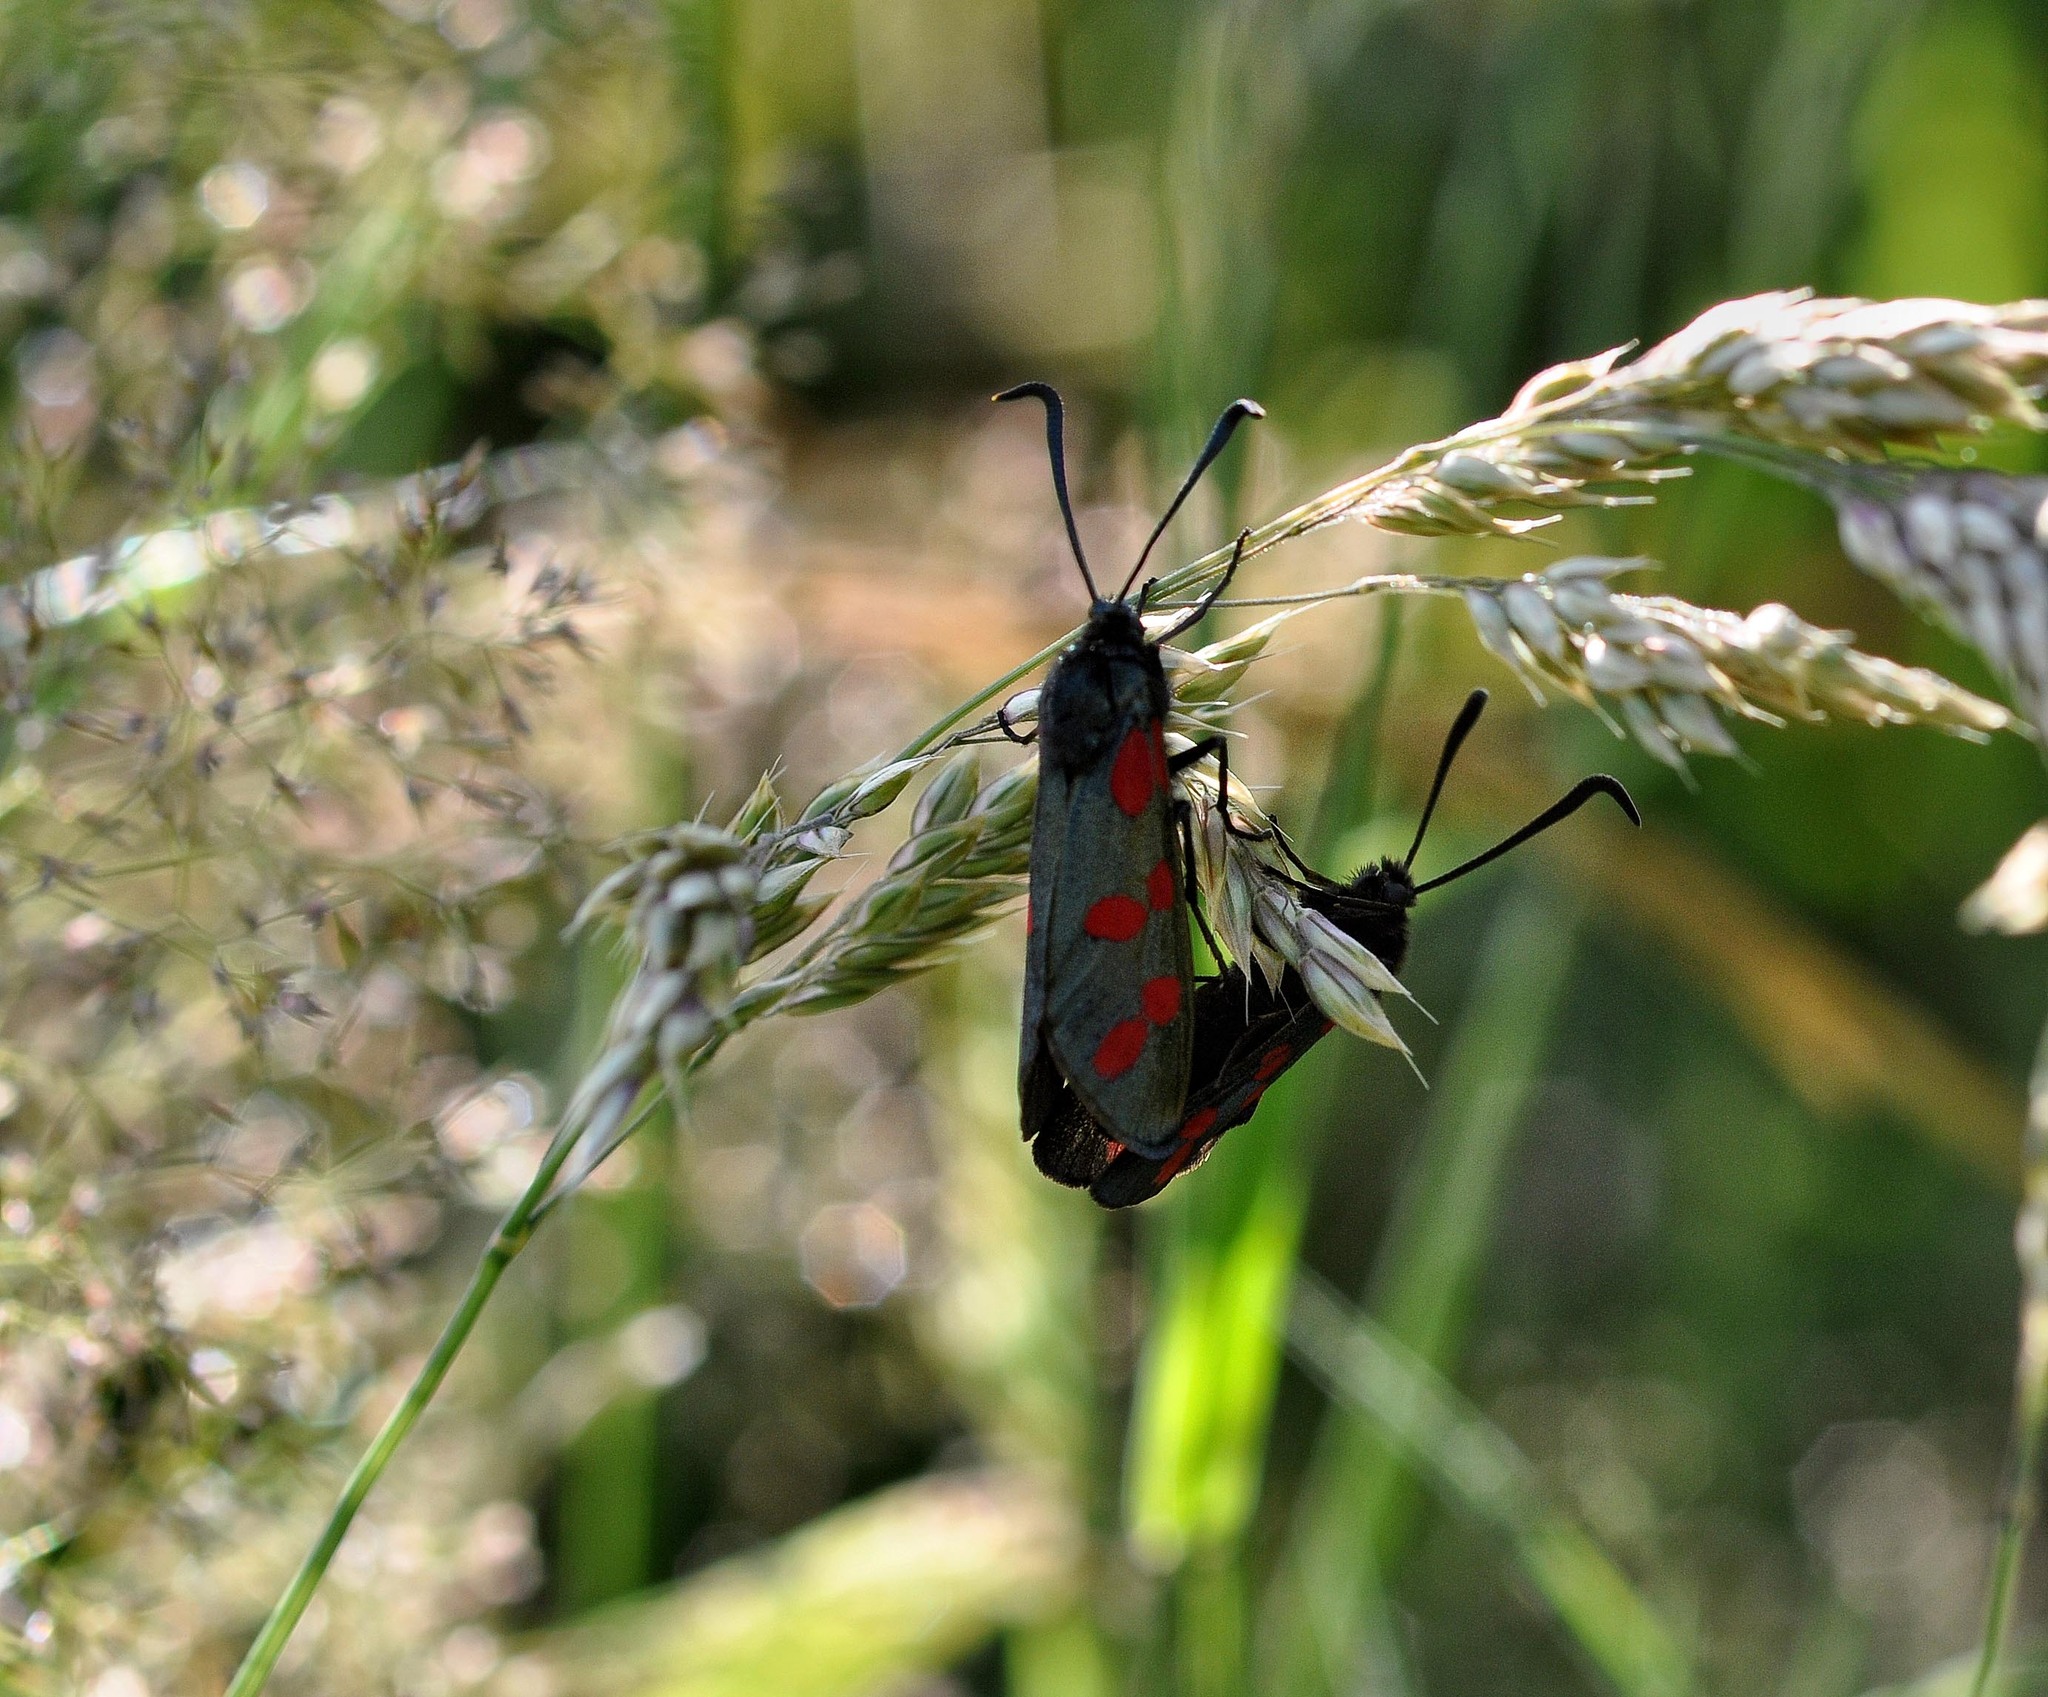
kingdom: Animalia
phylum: Arthropoda
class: Insecta
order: Lepidoptera
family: Zygaenidae
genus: Zygaena
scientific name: Zygaena filipendulae
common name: Six-spot burnet
